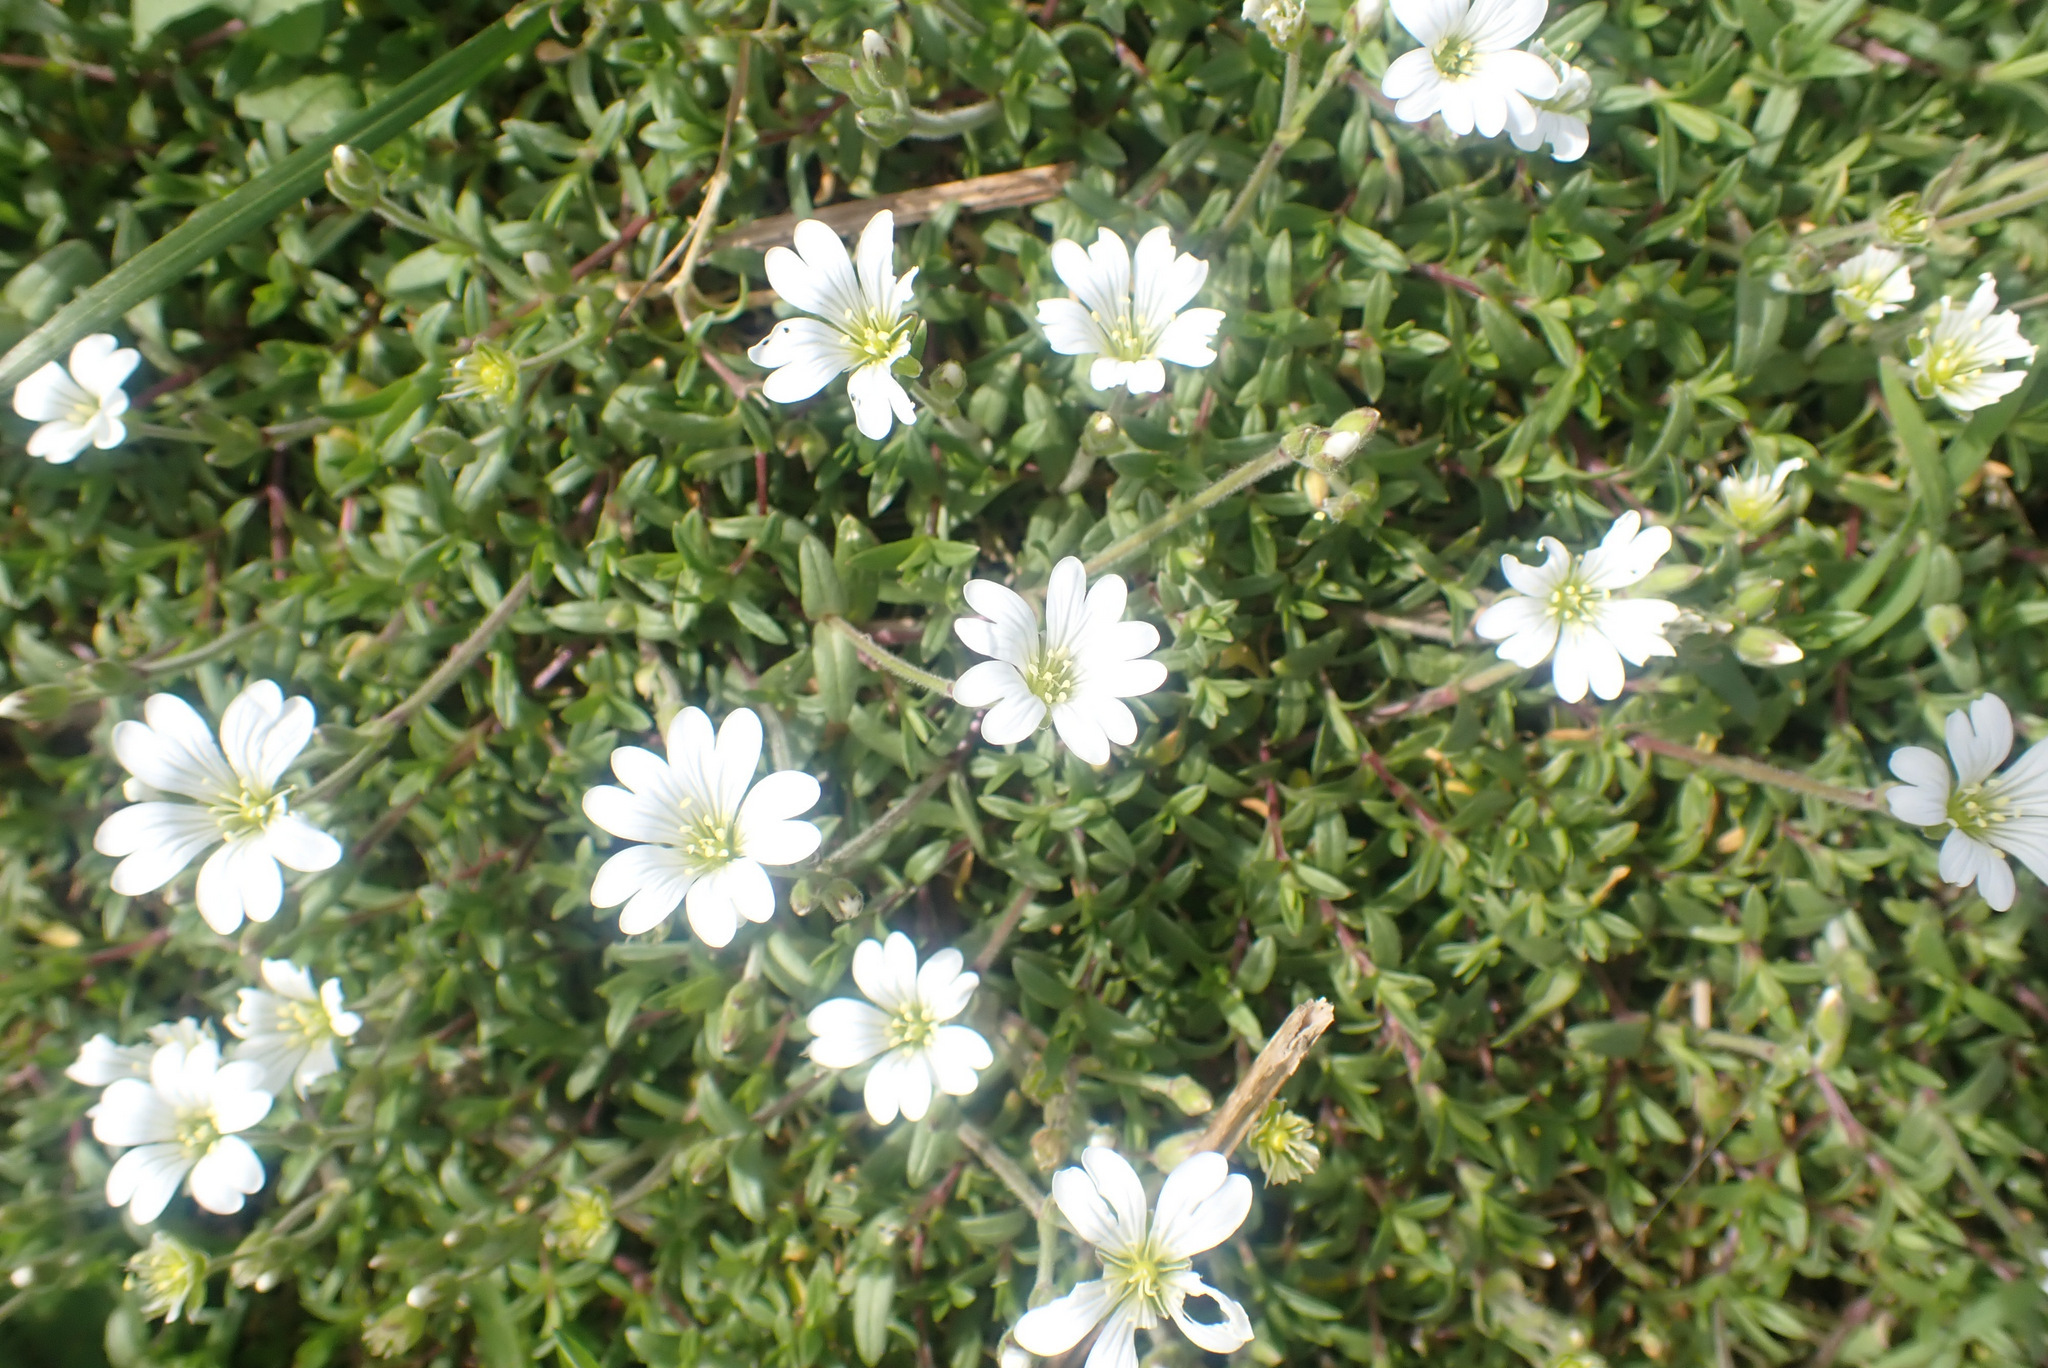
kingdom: Plantae
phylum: Tracheophyta
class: Magnoliopsida
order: Caryophyllales
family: Caryophyllaceae
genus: Cerastium
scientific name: Cerastium arvense
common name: Field mouse-ear
